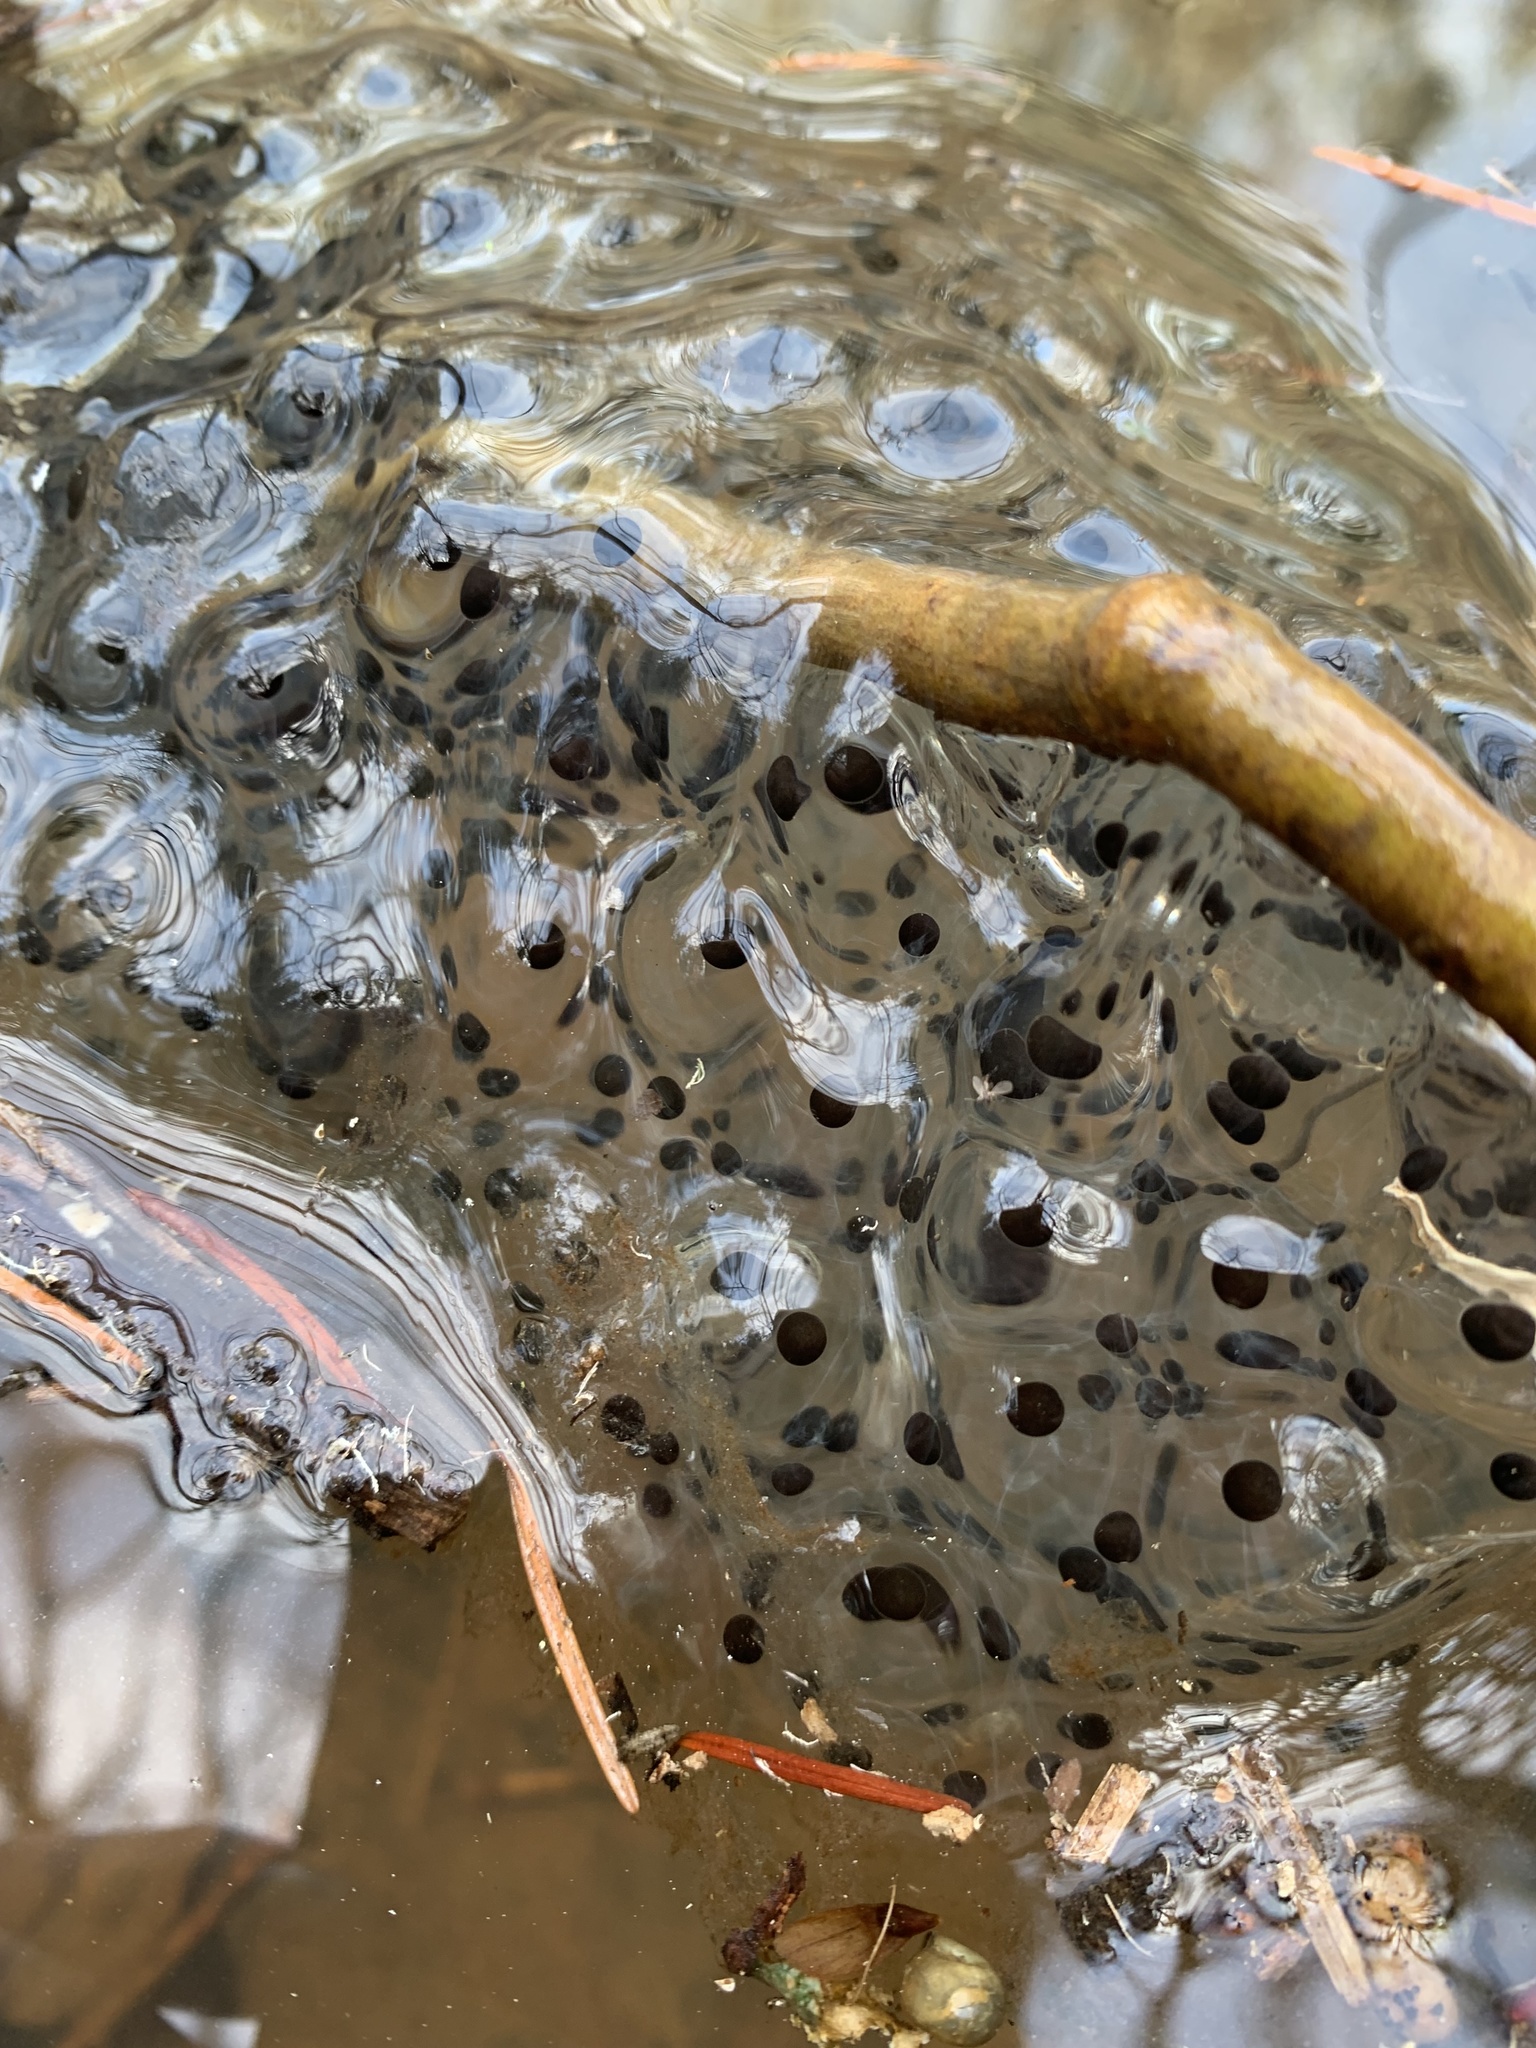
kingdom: Animalia
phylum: Chordata
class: Amphibia
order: Anura
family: Ranidae
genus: Rana
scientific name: Rana aurora
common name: Red-legged frog
